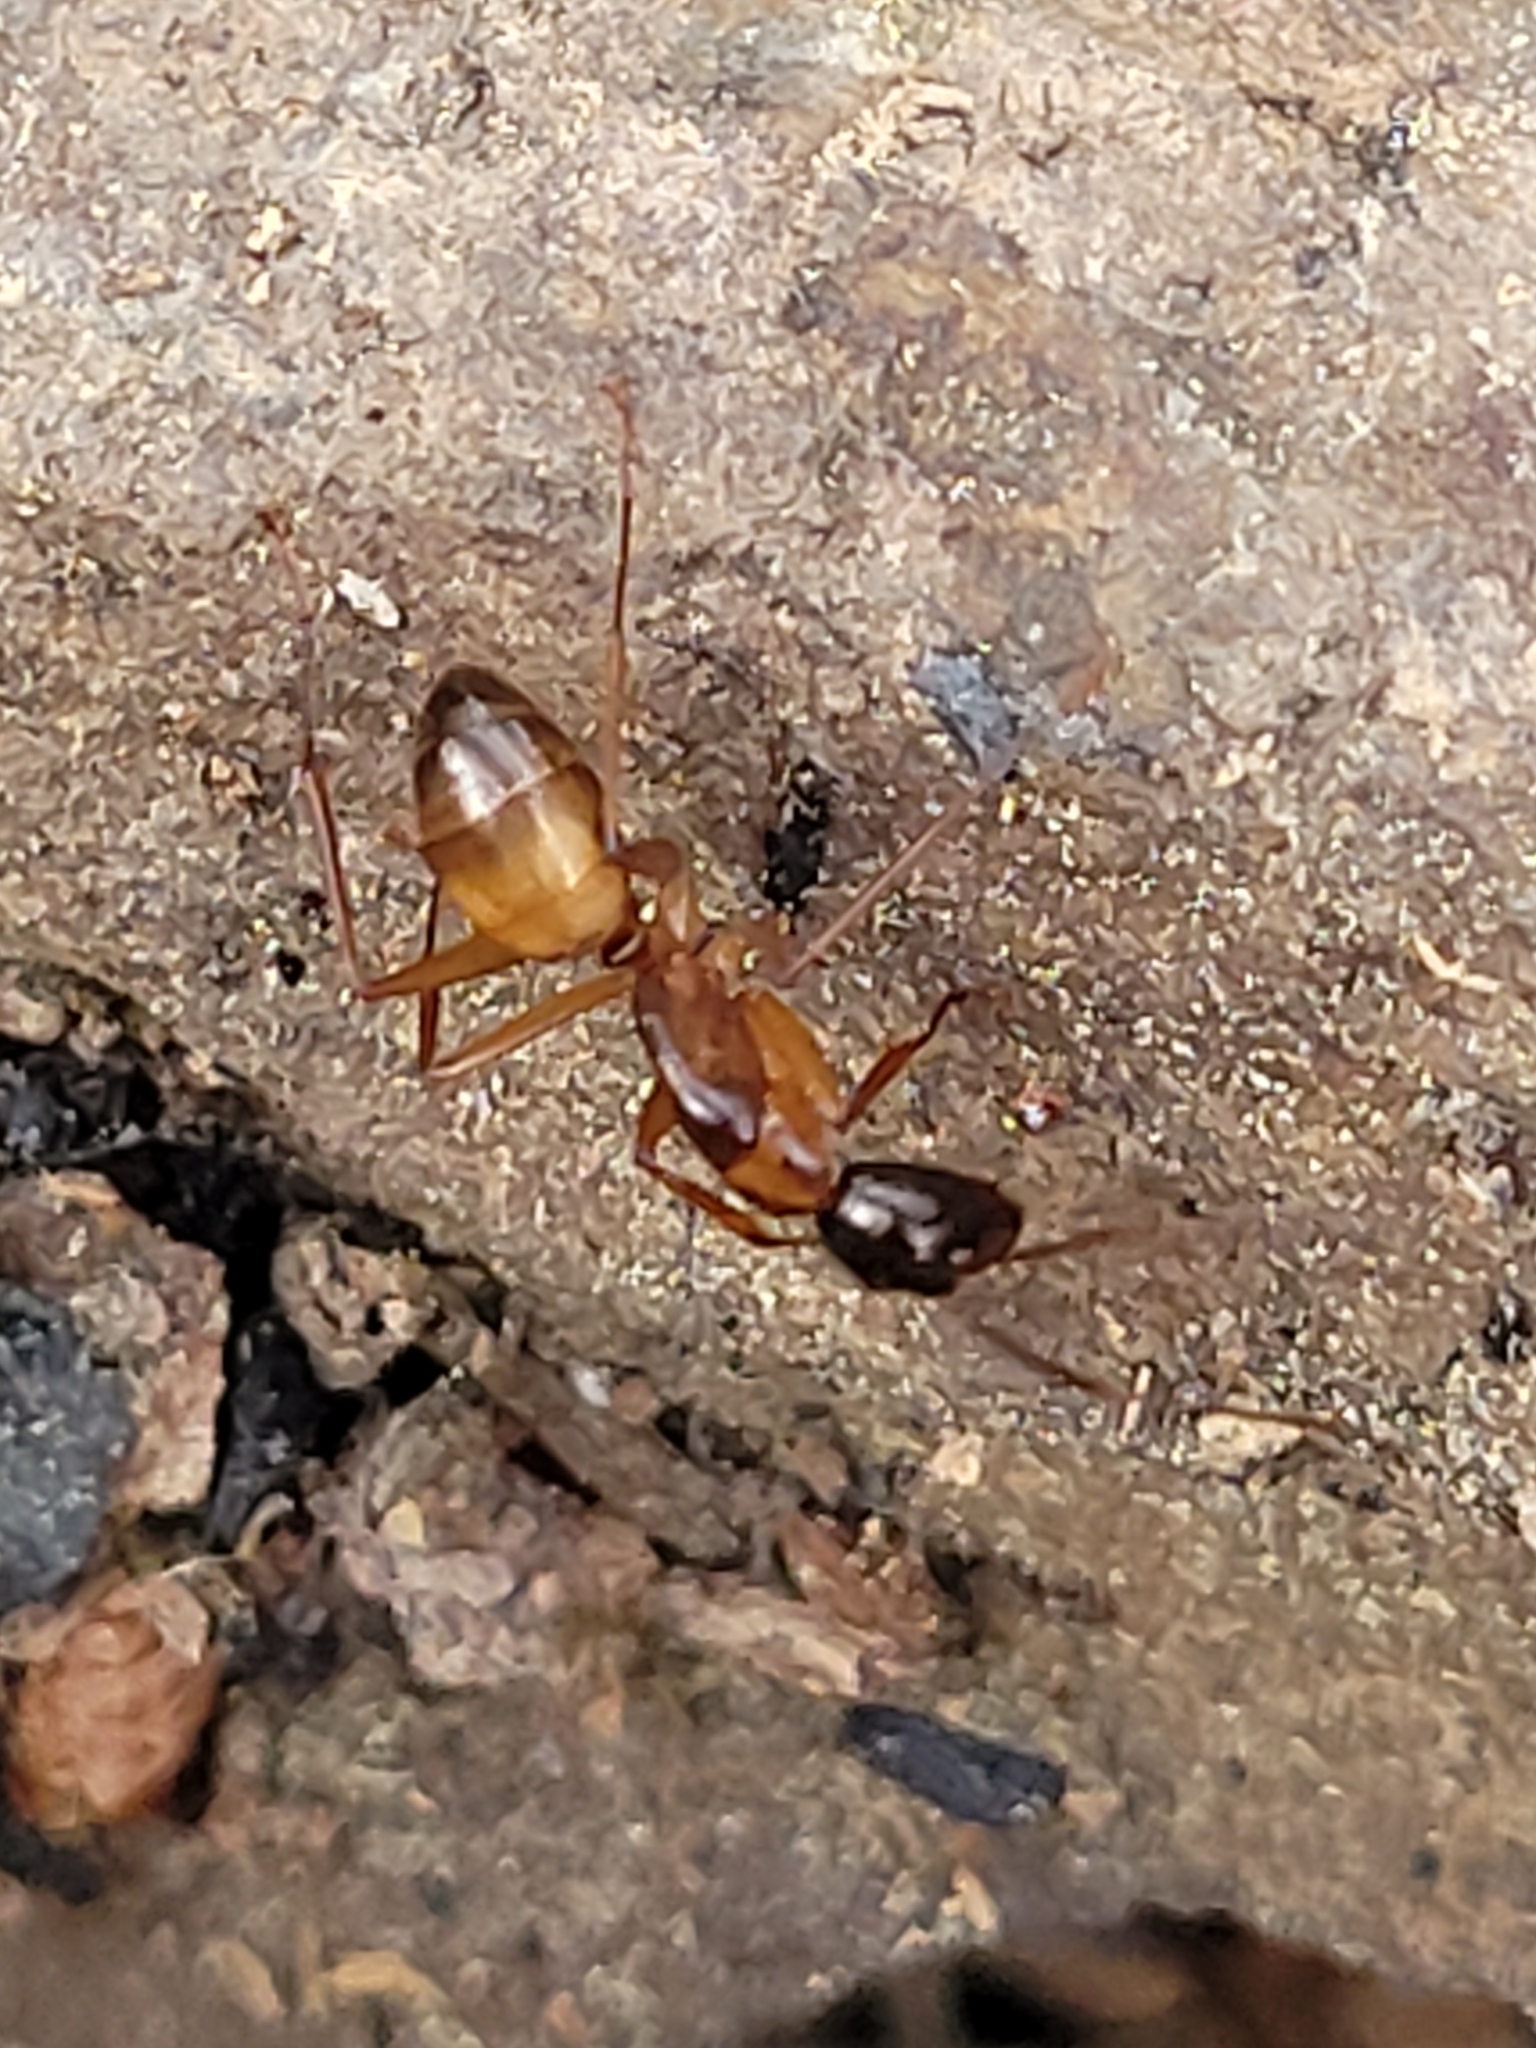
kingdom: Animalia
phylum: Arthropoda
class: Insecta
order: Hymenoptera
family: Formicidae
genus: Camponotus
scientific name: Camponotus americanus
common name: American carpenter ant
